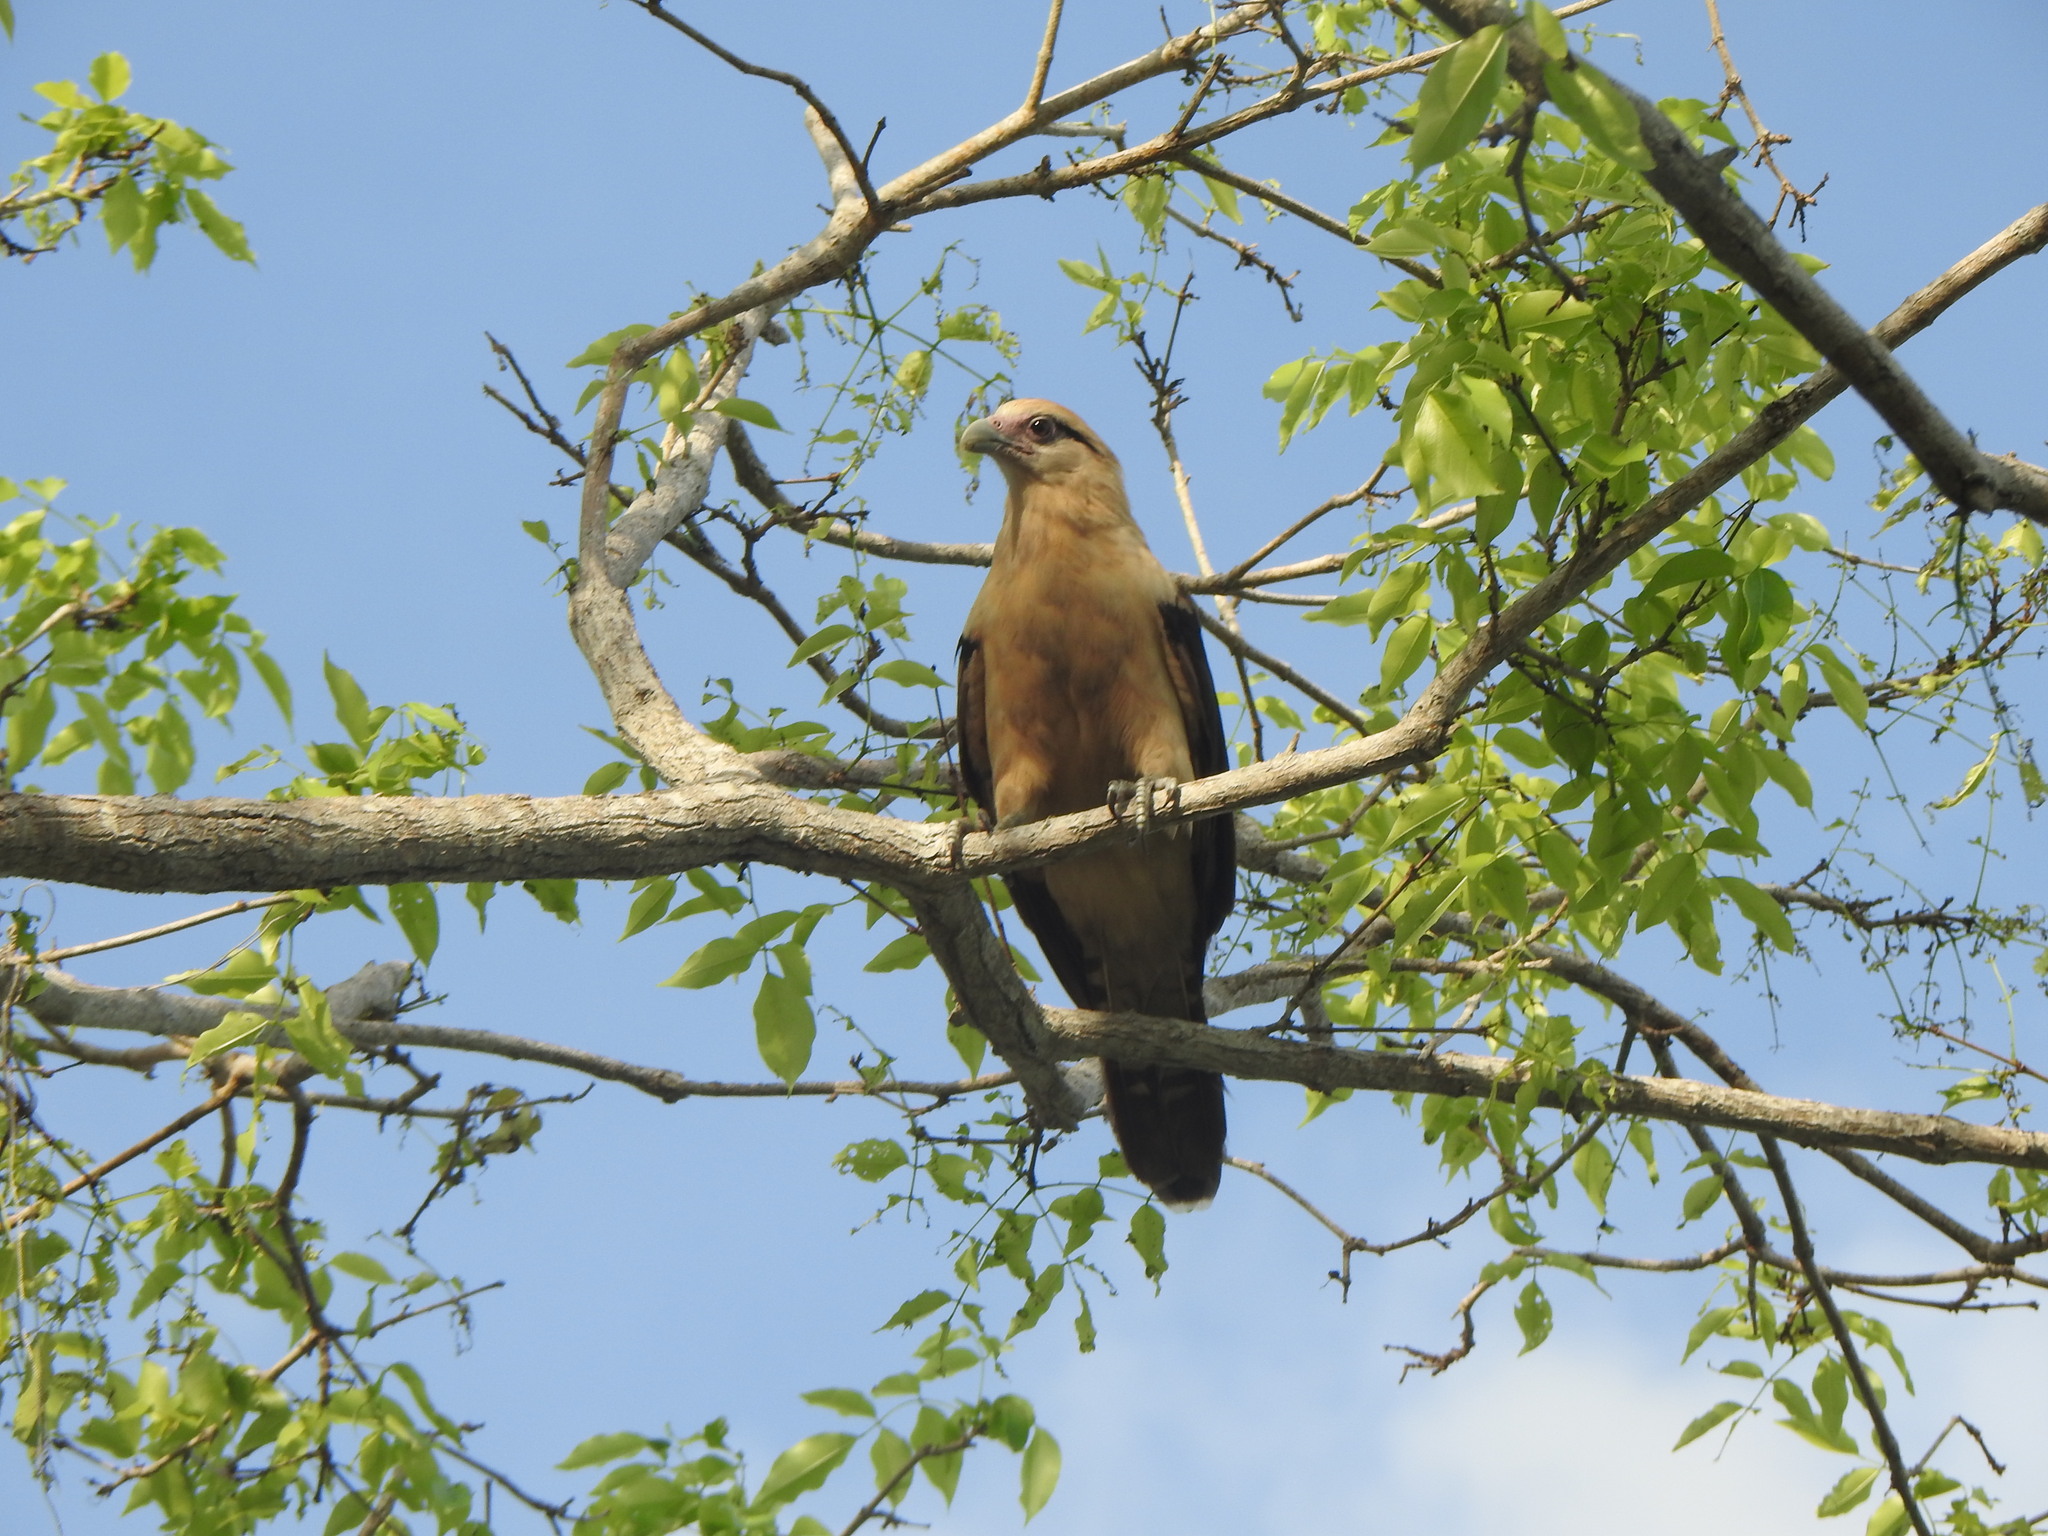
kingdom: Animalia
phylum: Chordata
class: Aves
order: Falconiformes
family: Falconidae
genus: Daptrius
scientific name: Daptrius
